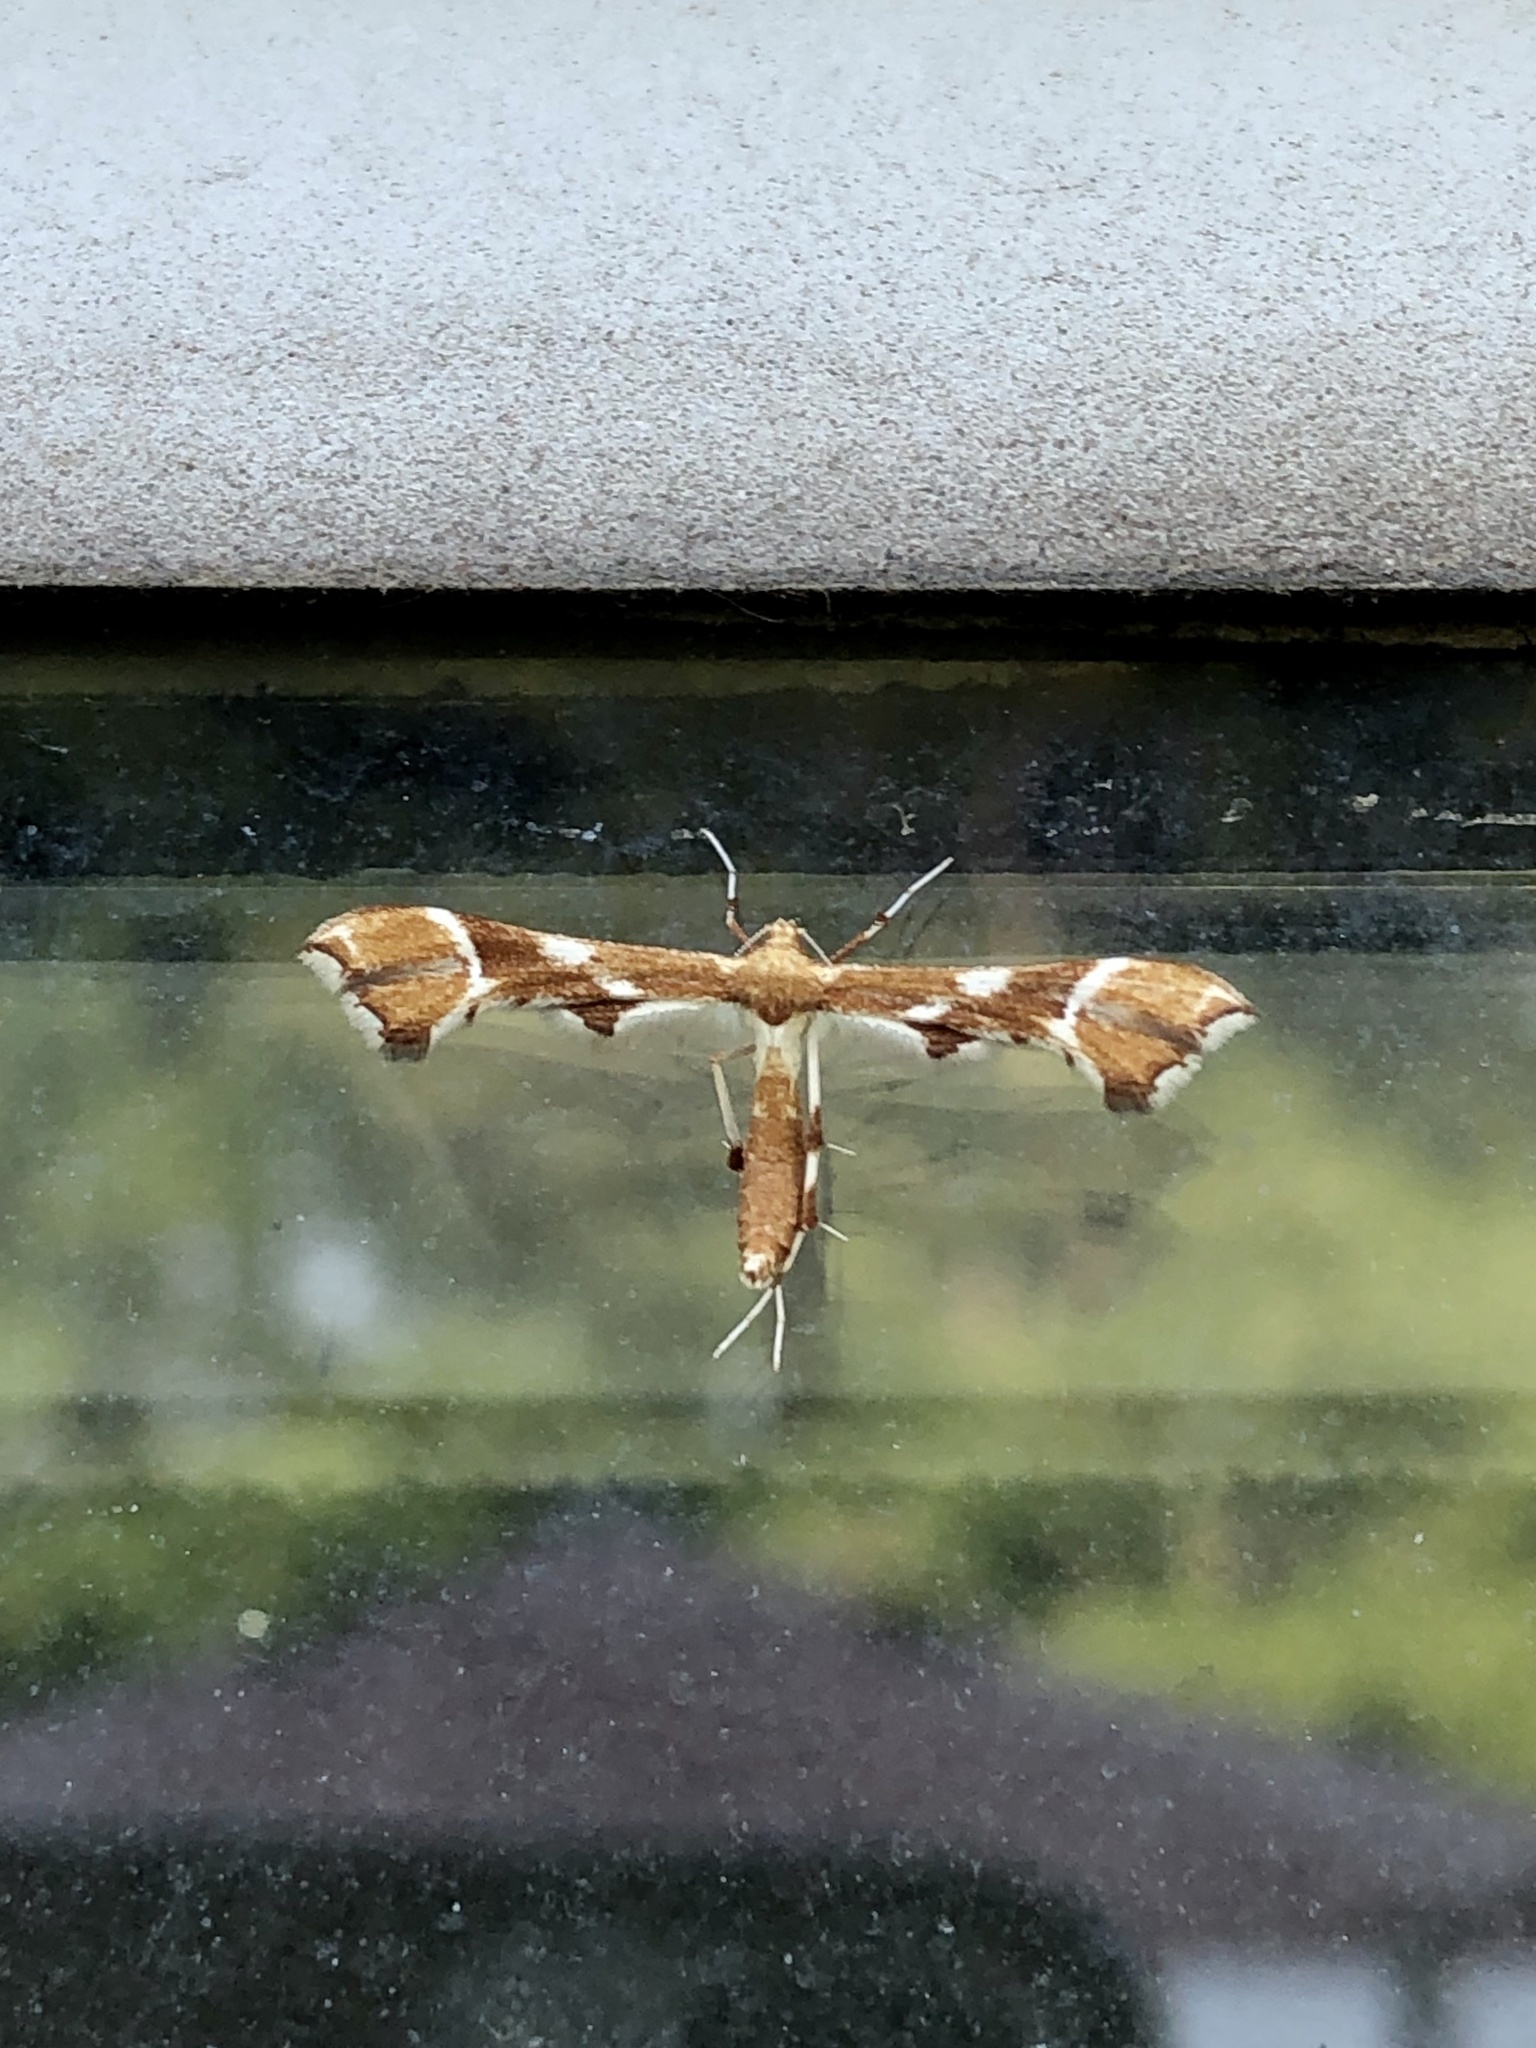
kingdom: Animalia
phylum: Arthropoda
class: Insecta
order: Lepidoptera
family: Pterophoridae
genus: Cnaemidophorus
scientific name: Cnaemidophorus rhododactyla
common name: Rose plume
